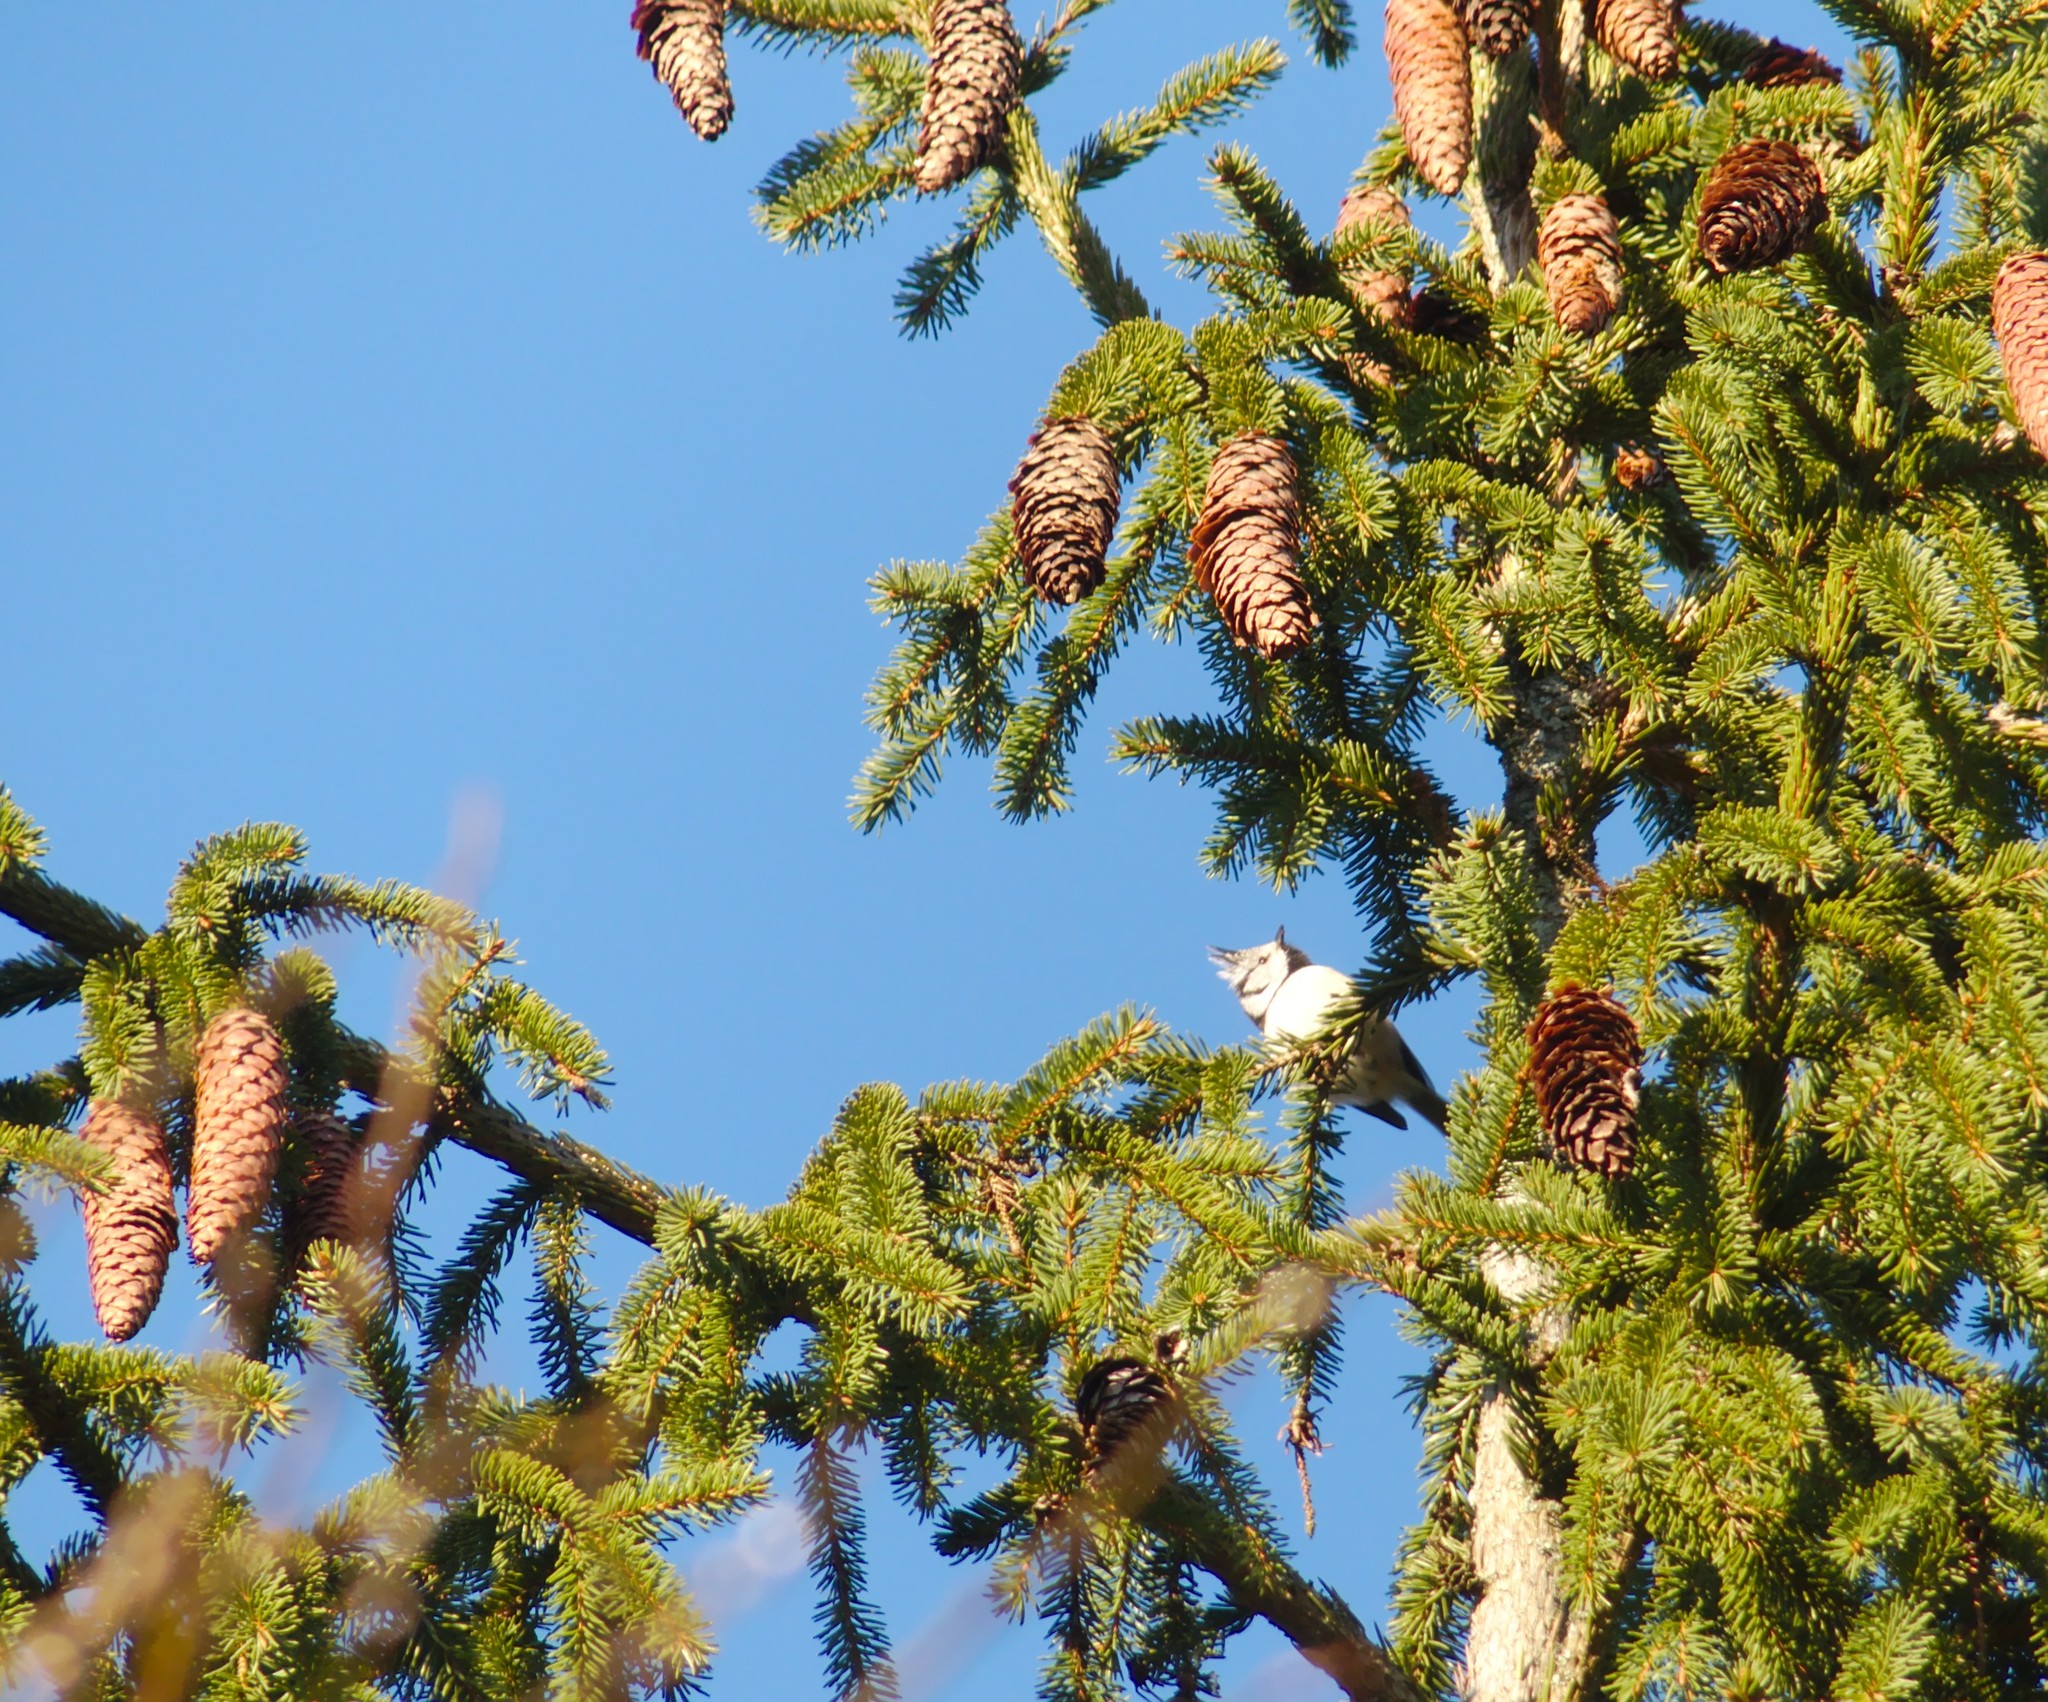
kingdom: Animalia
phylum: Chordata
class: Aves
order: Passeriformes
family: Paridae
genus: Lophophanes
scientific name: Lophophanes cristatus
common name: European crested tit
